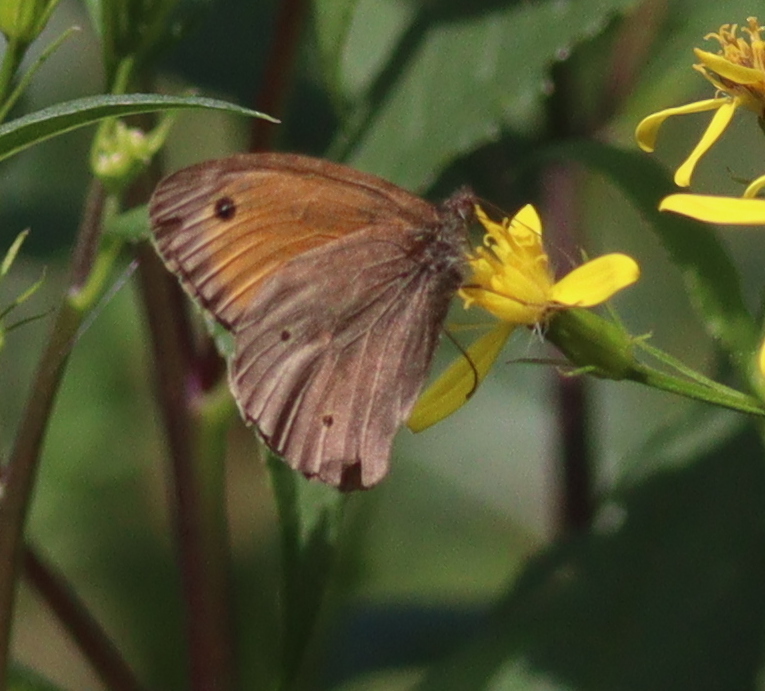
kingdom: Animalia
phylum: Arthropoda
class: Insecta
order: Lepidoptera
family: Nymphalidae
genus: Maniola
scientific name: Maniola jurtina
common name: Meadow brown
